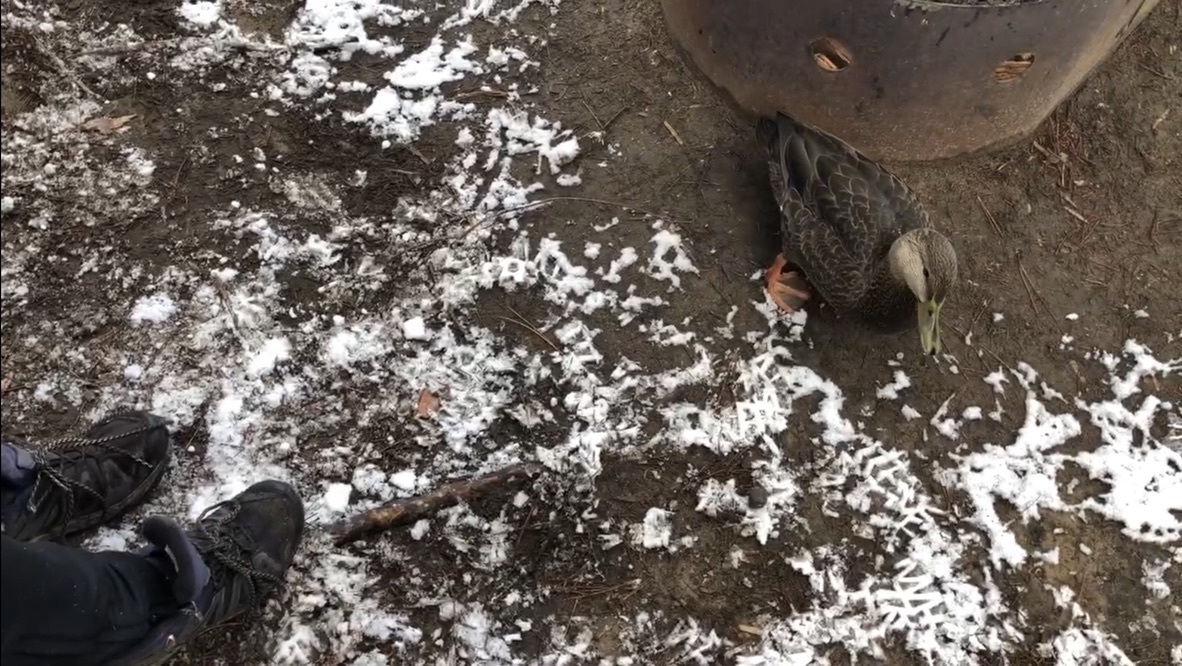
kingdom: Animalia
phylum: Chordata
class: Aves
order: Anseriformes
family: Anatidae
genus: Anas
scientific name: Anas rubripes
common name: American black duck
